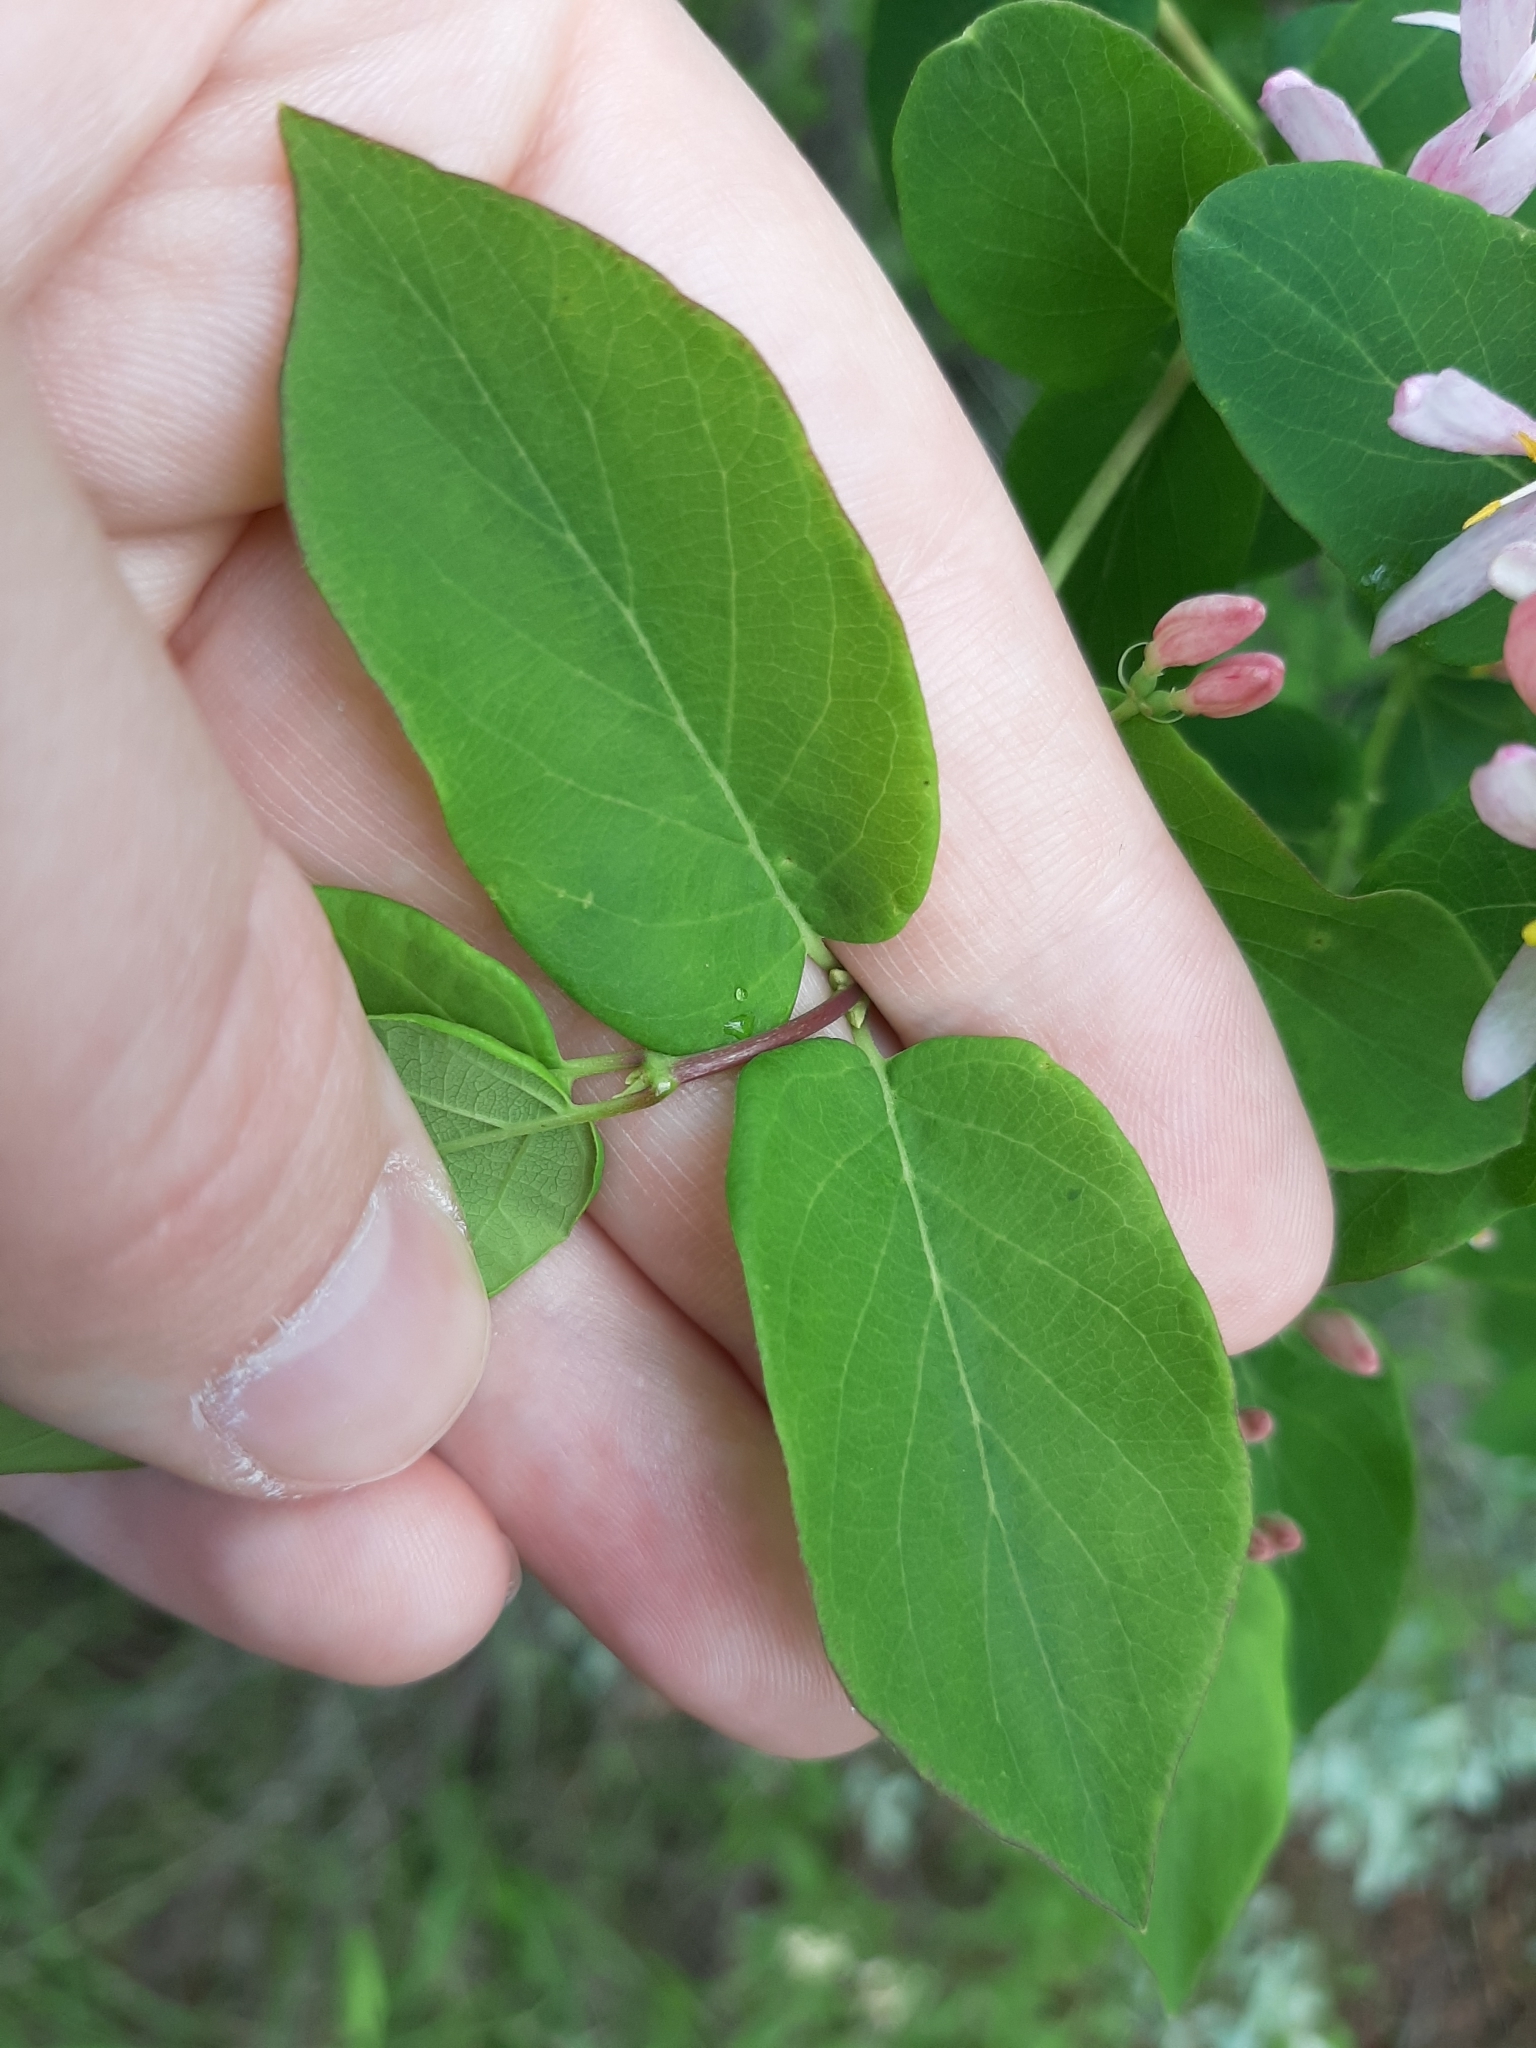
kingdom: Plantae
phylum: Tracheophyta
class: Magnoliopsida
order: Dipsacales
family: Caprifoliaceae
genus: Lonicera
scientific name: Lonicera tatarica
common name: Tatarian honeysuckle
